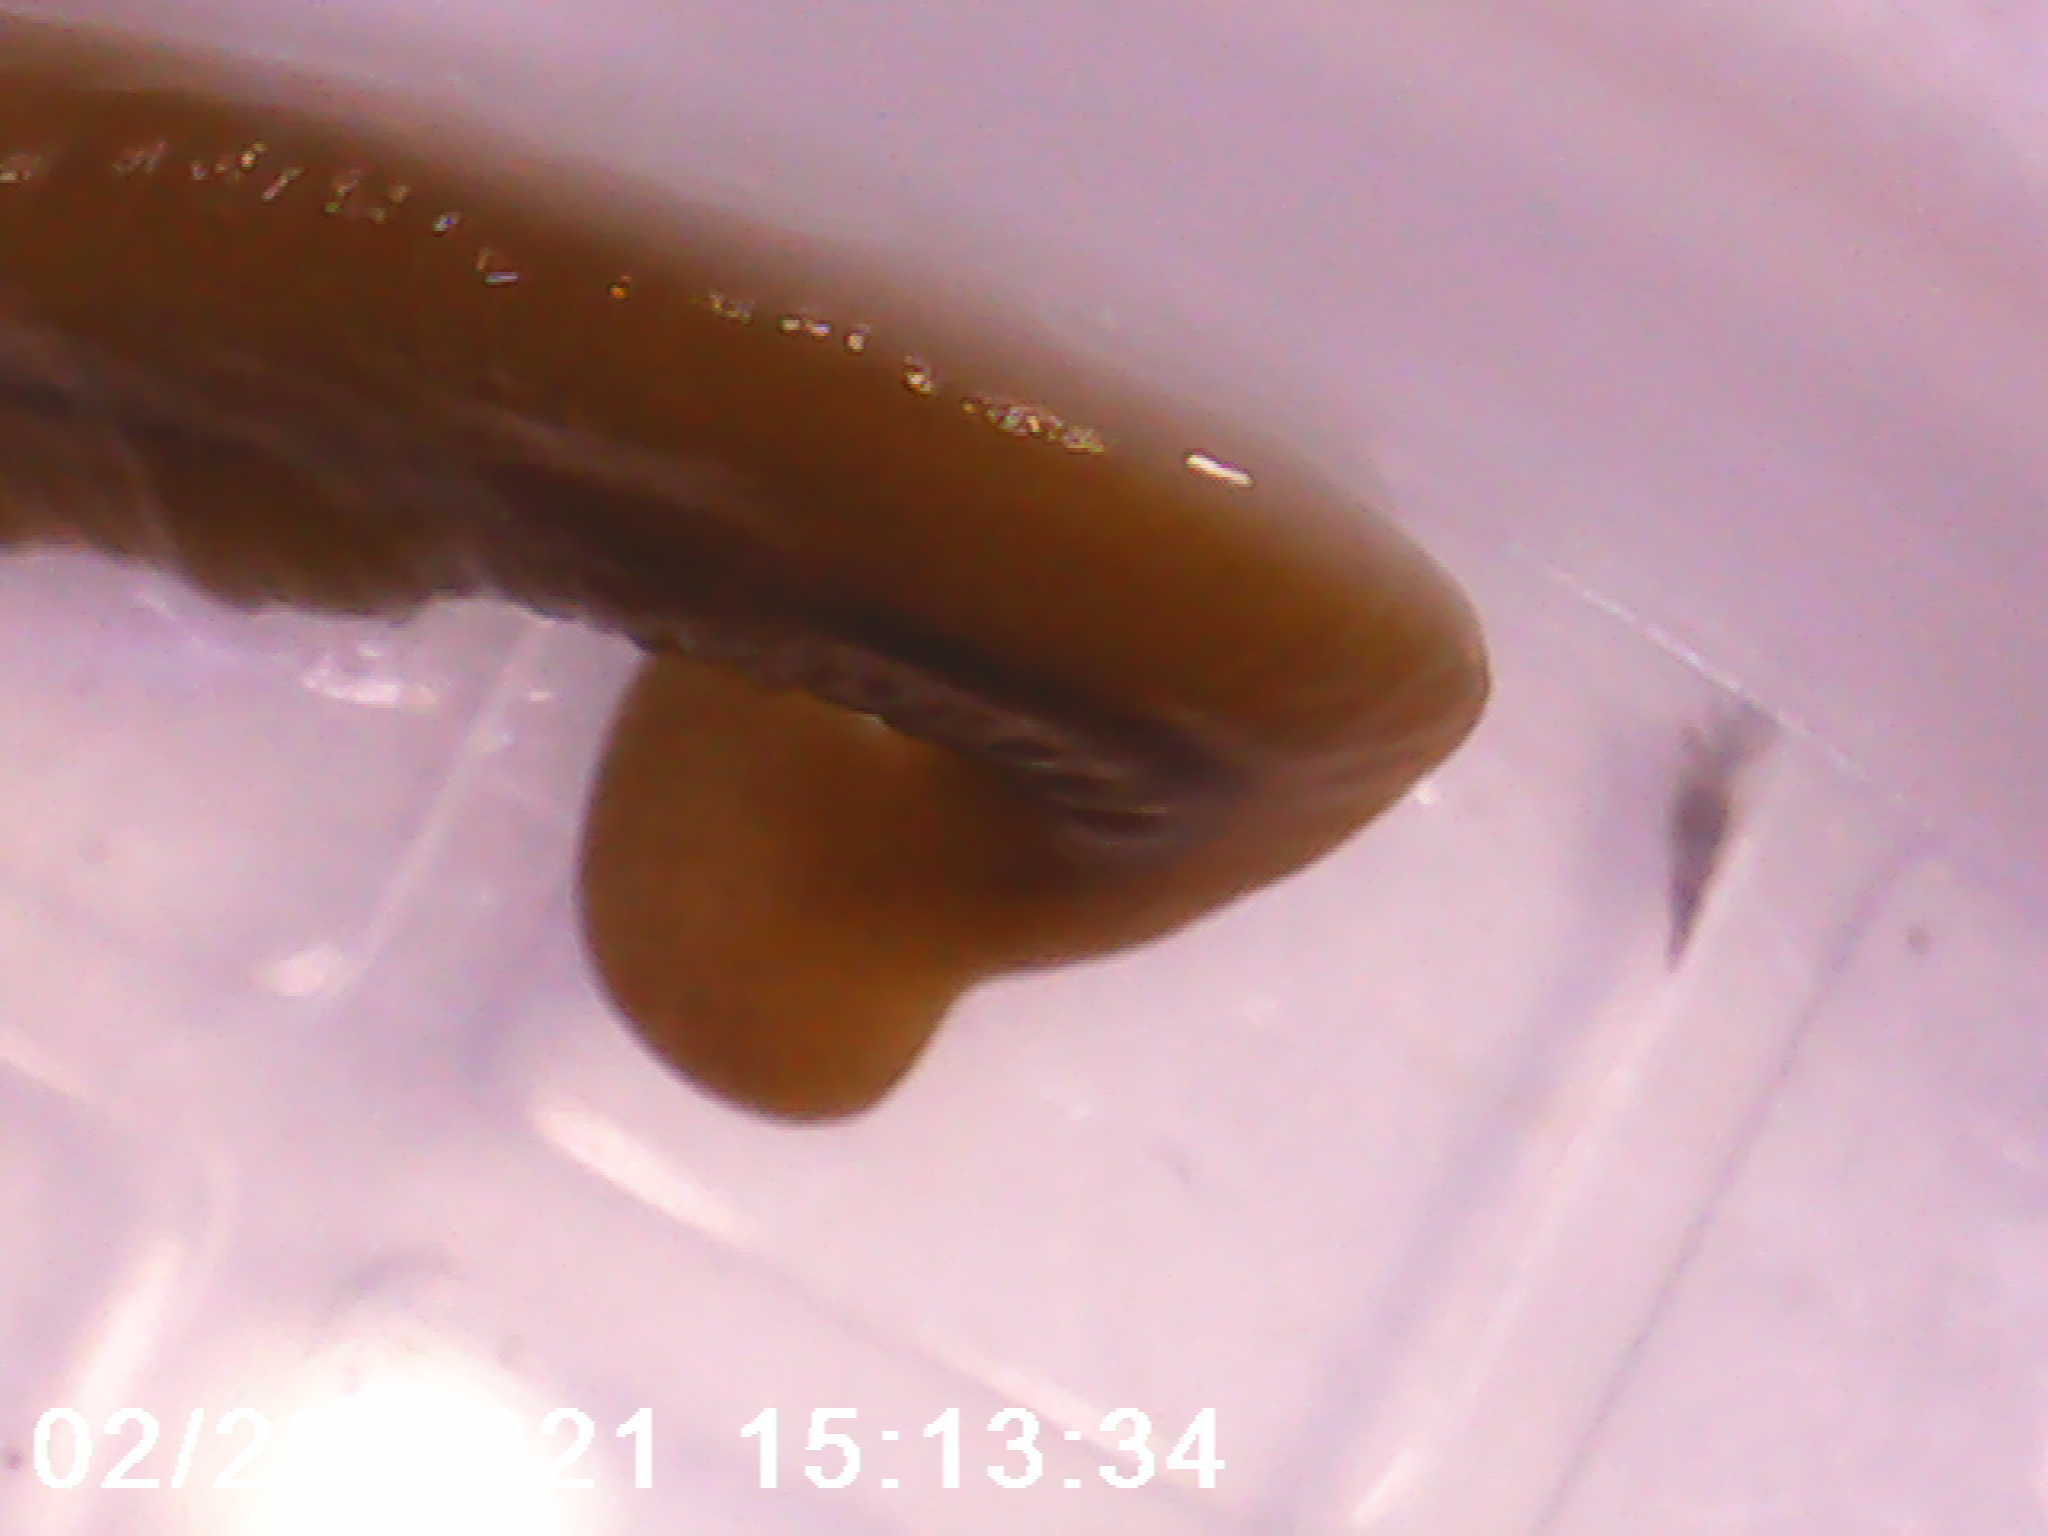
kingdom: Animalia
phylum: Platyhelminthes
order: Tricladida
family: Geoplanidae
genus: Bipalium
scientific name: Bipalium adventitium
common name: Land planarian
